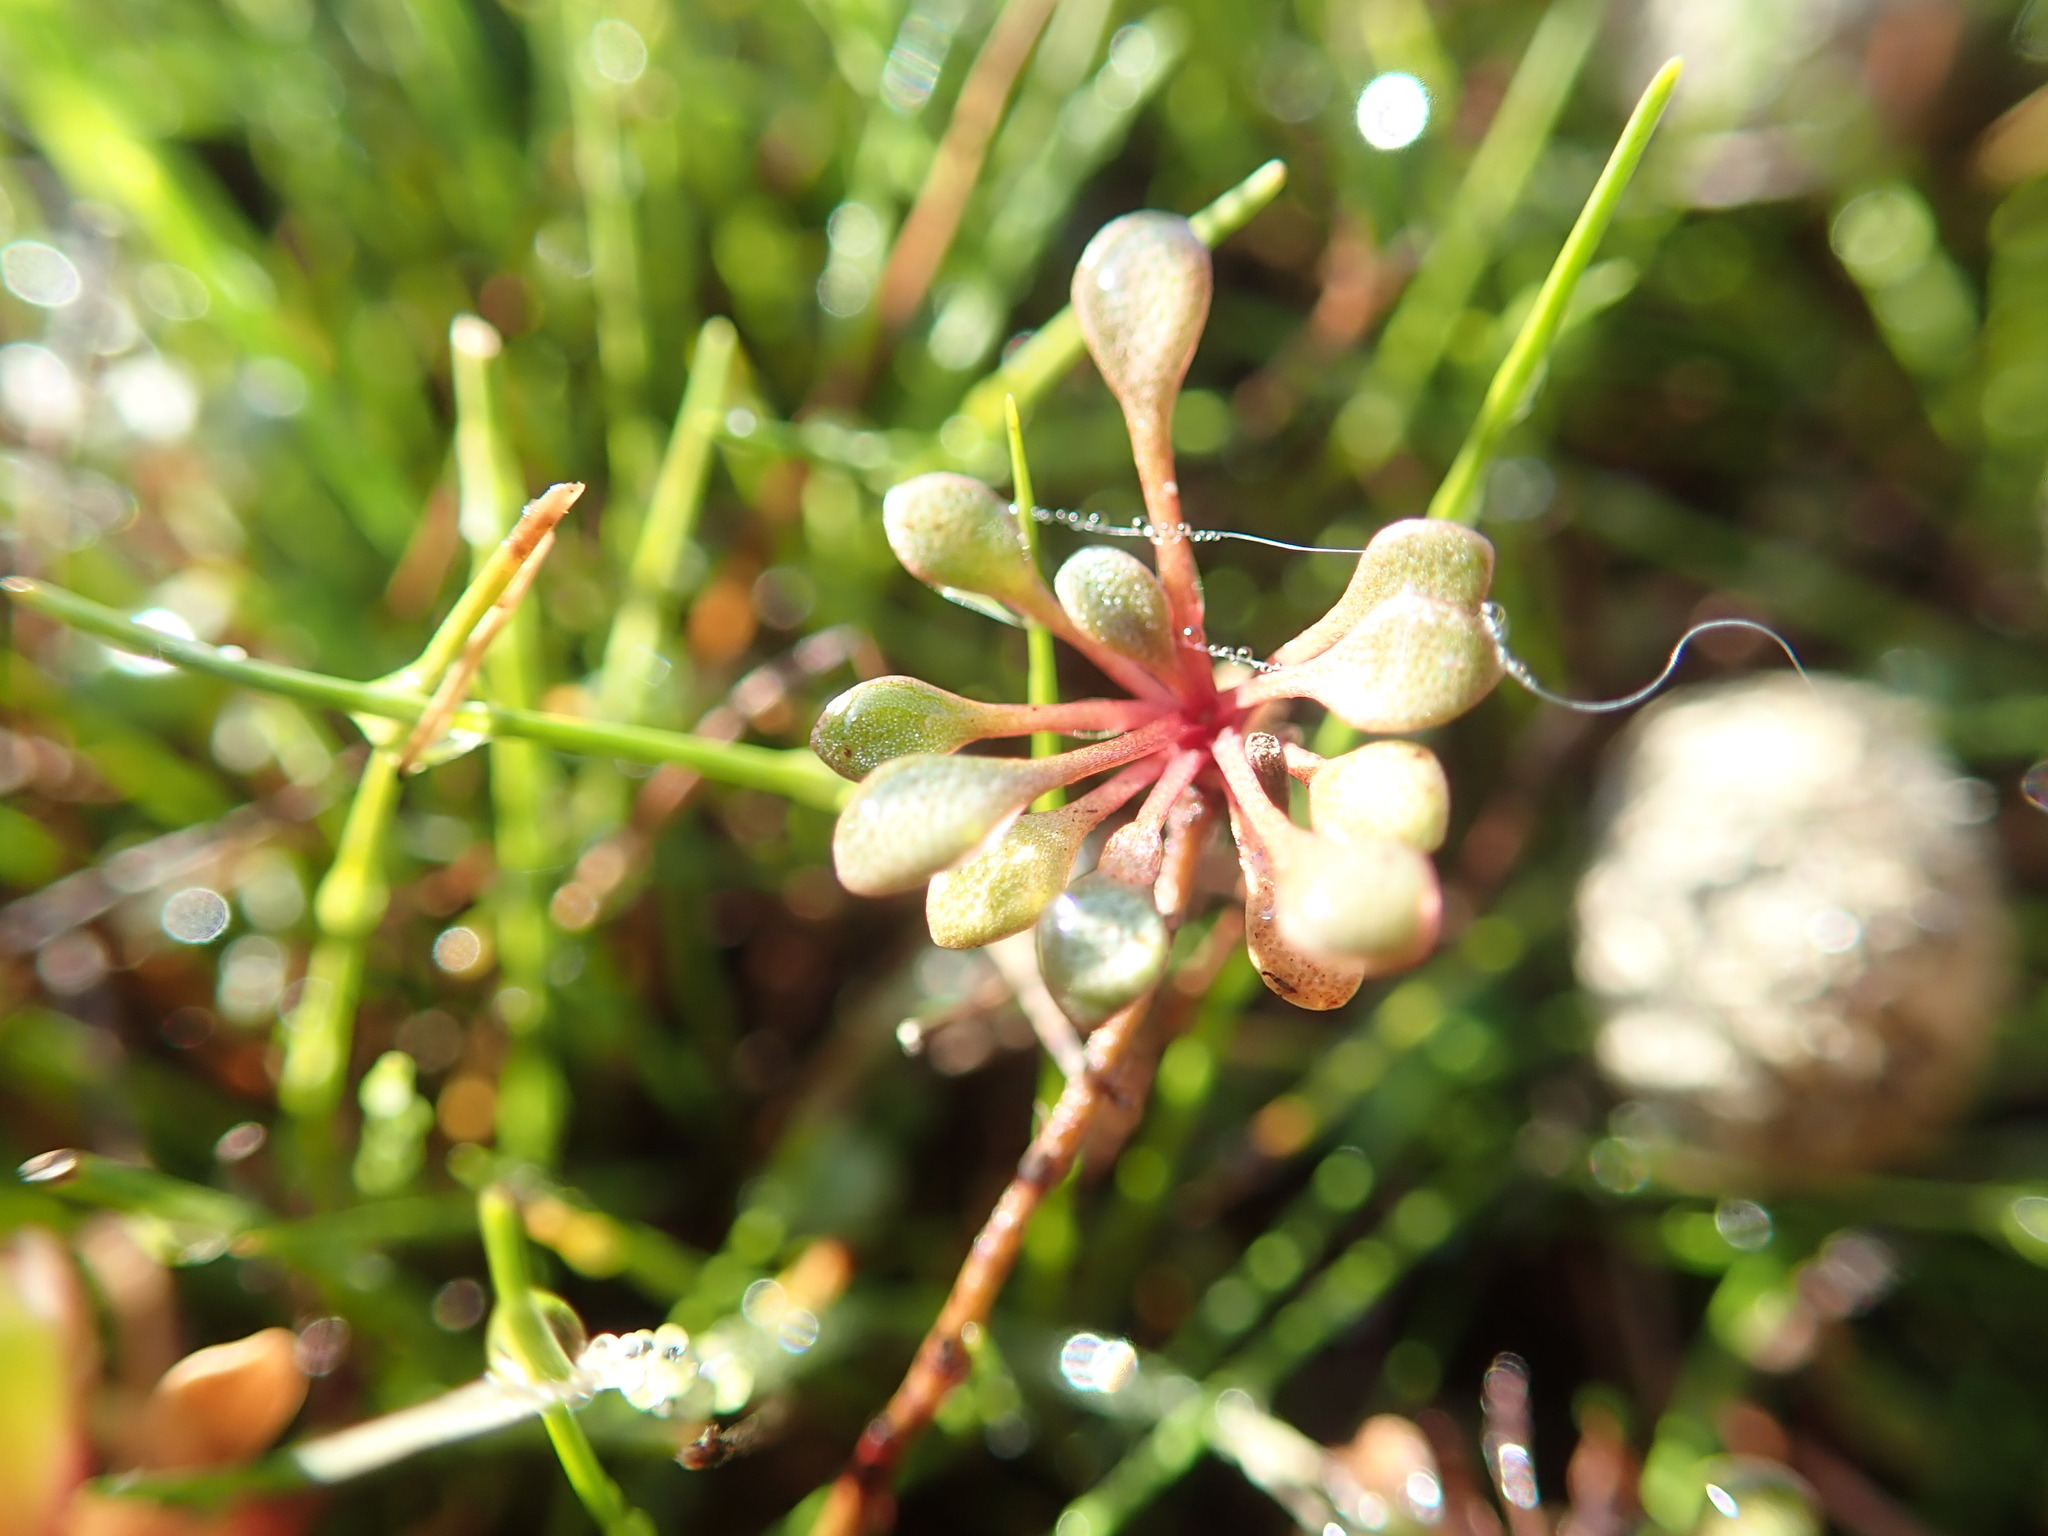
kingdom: Plantae
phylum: Tracheophyta
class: Magnoliopsida
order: Ericales
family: Primulaceae
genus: Samolus
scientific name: Samolus repens
